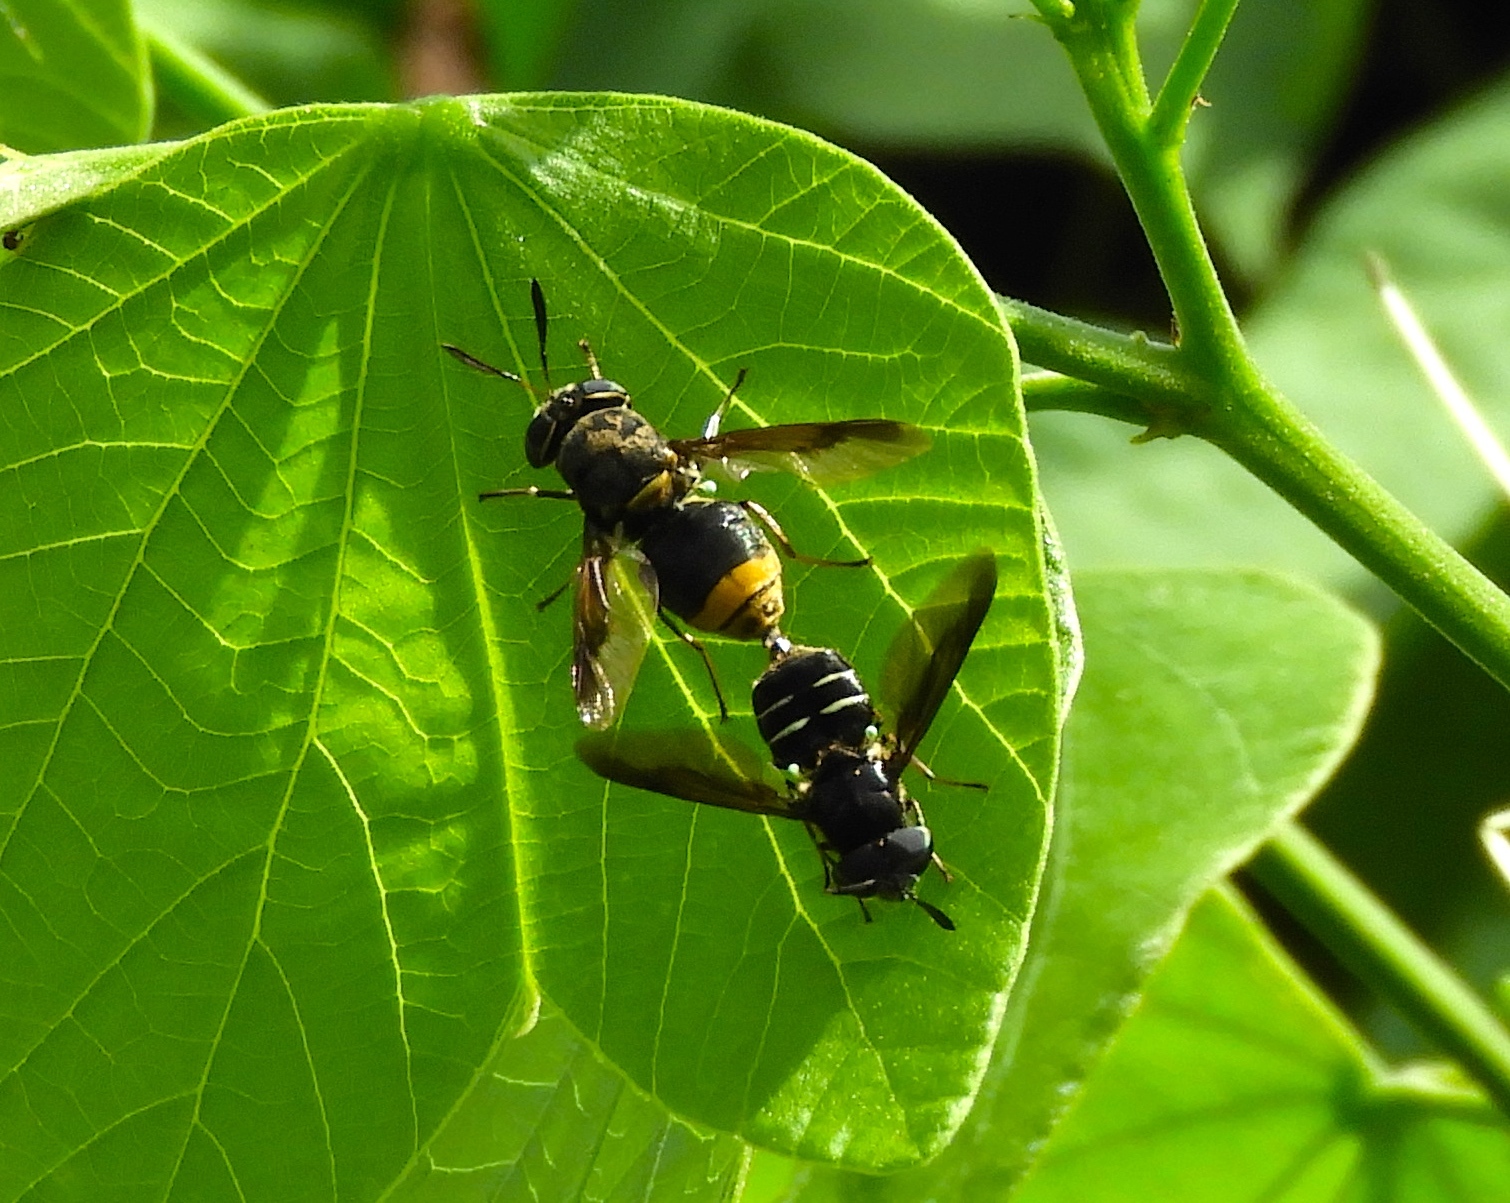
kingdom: Animalia
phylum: Arthropoda
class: Insecta
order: Diptera
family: Stratiomyidae
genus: Hoplitimyia
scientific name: Hoplitimyia mutabilis
